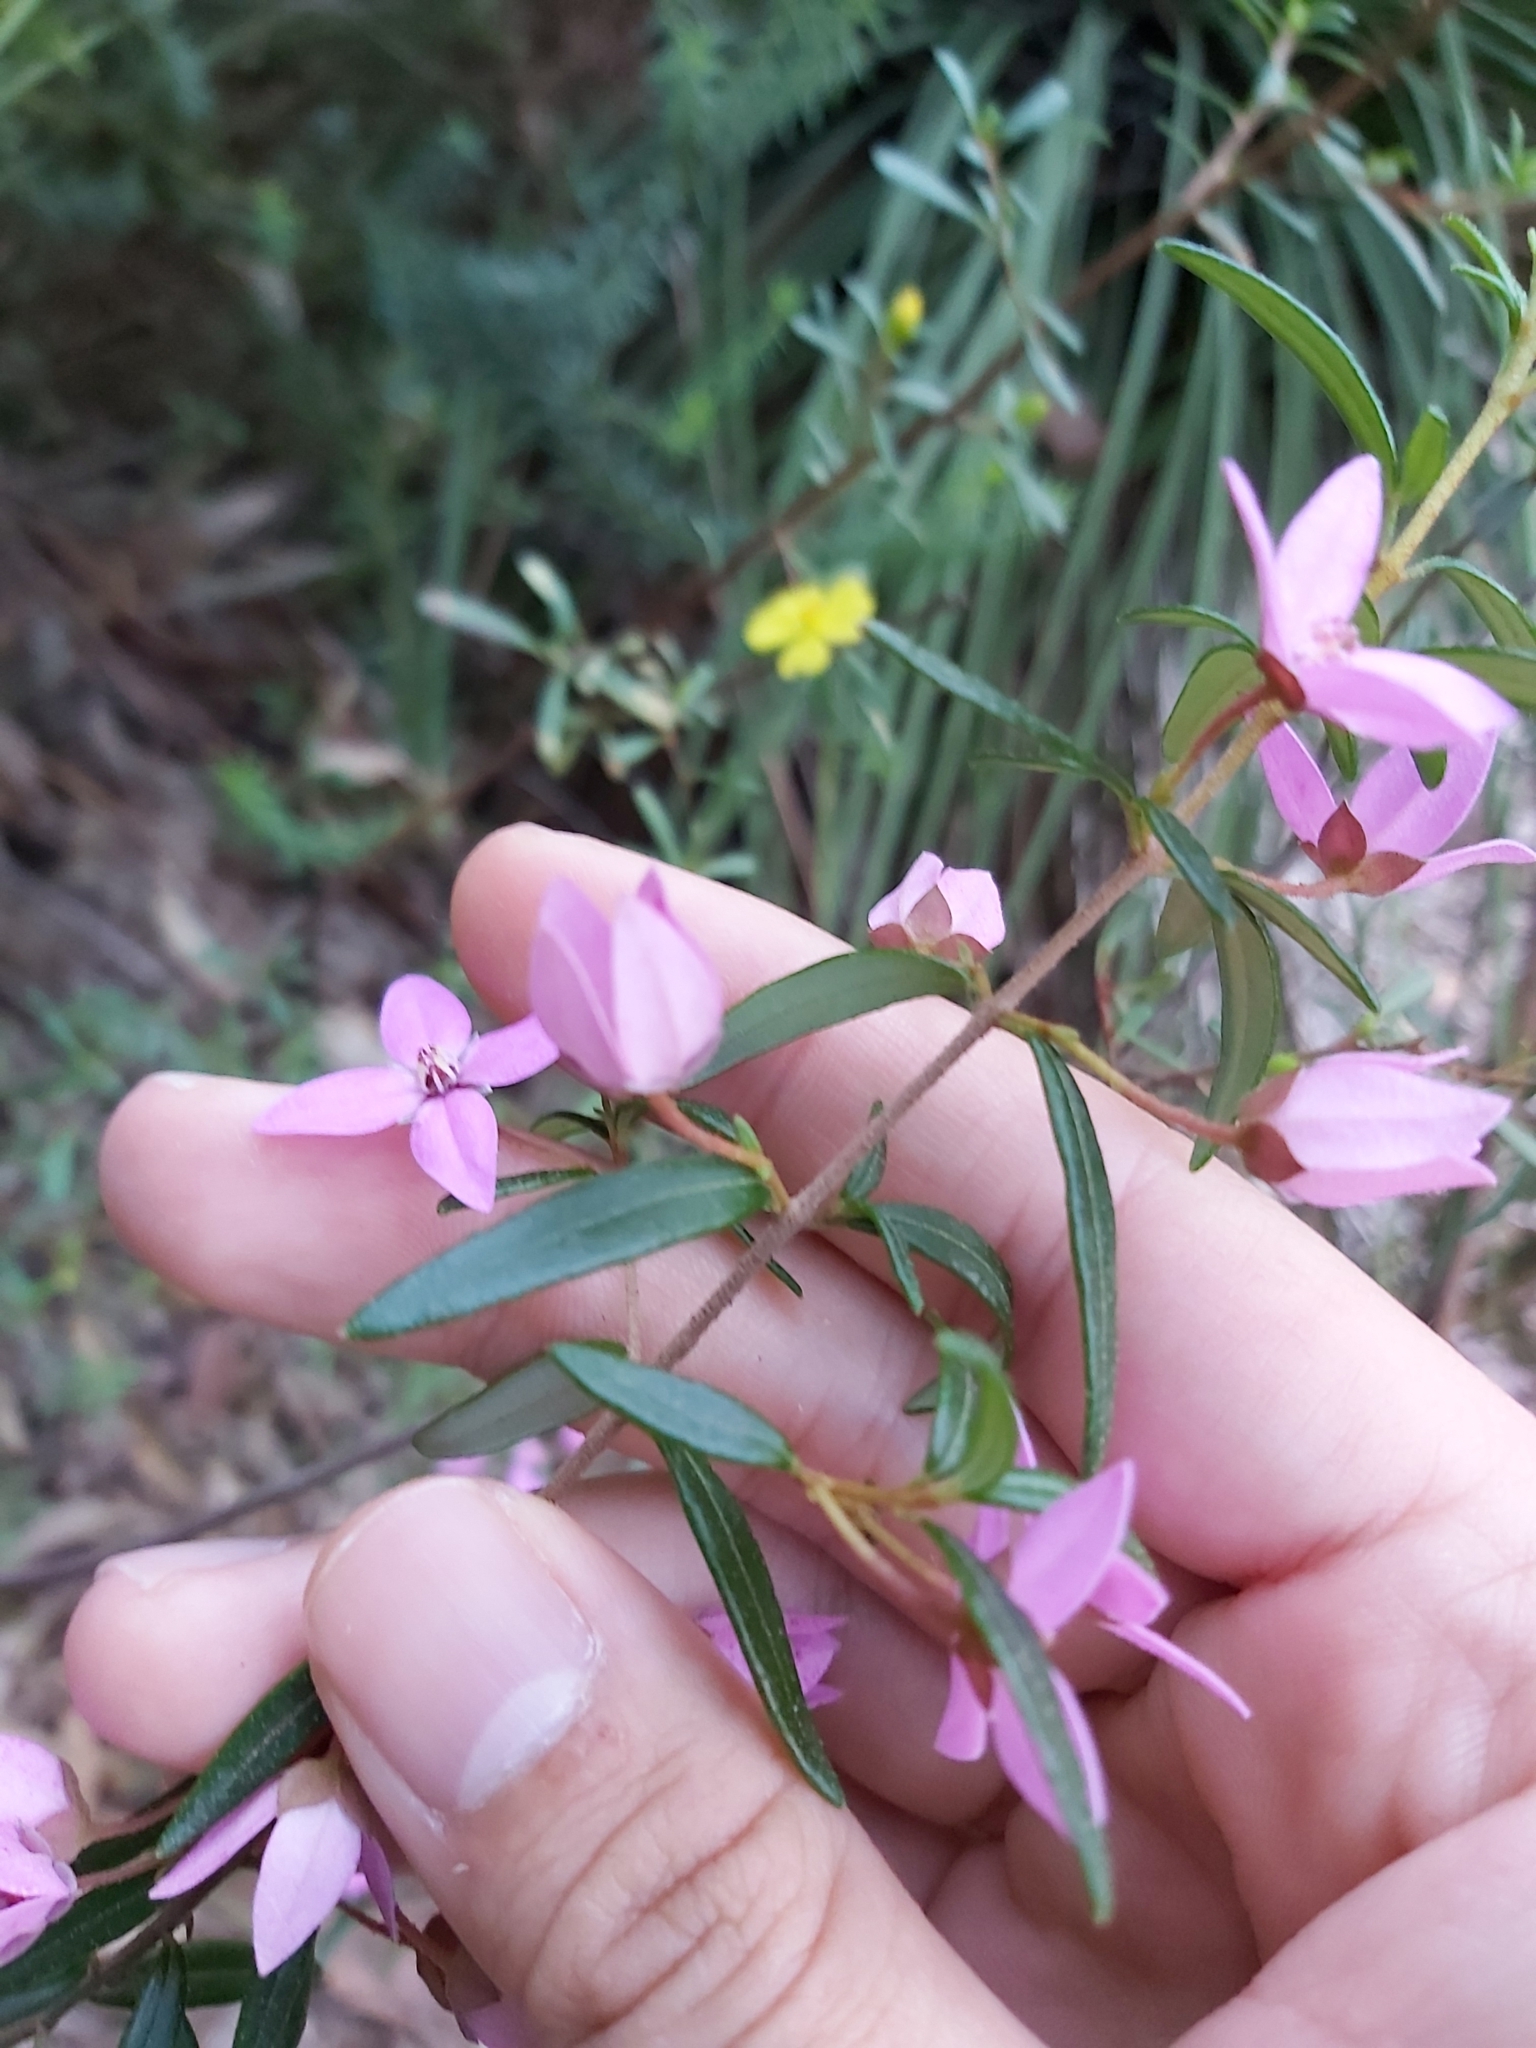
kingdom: Plantae
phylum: Tracheophyta
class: Magnoliopsida
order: Sapindales
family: Rutaceae
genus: Boronia
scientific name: Boronia ledifolia
